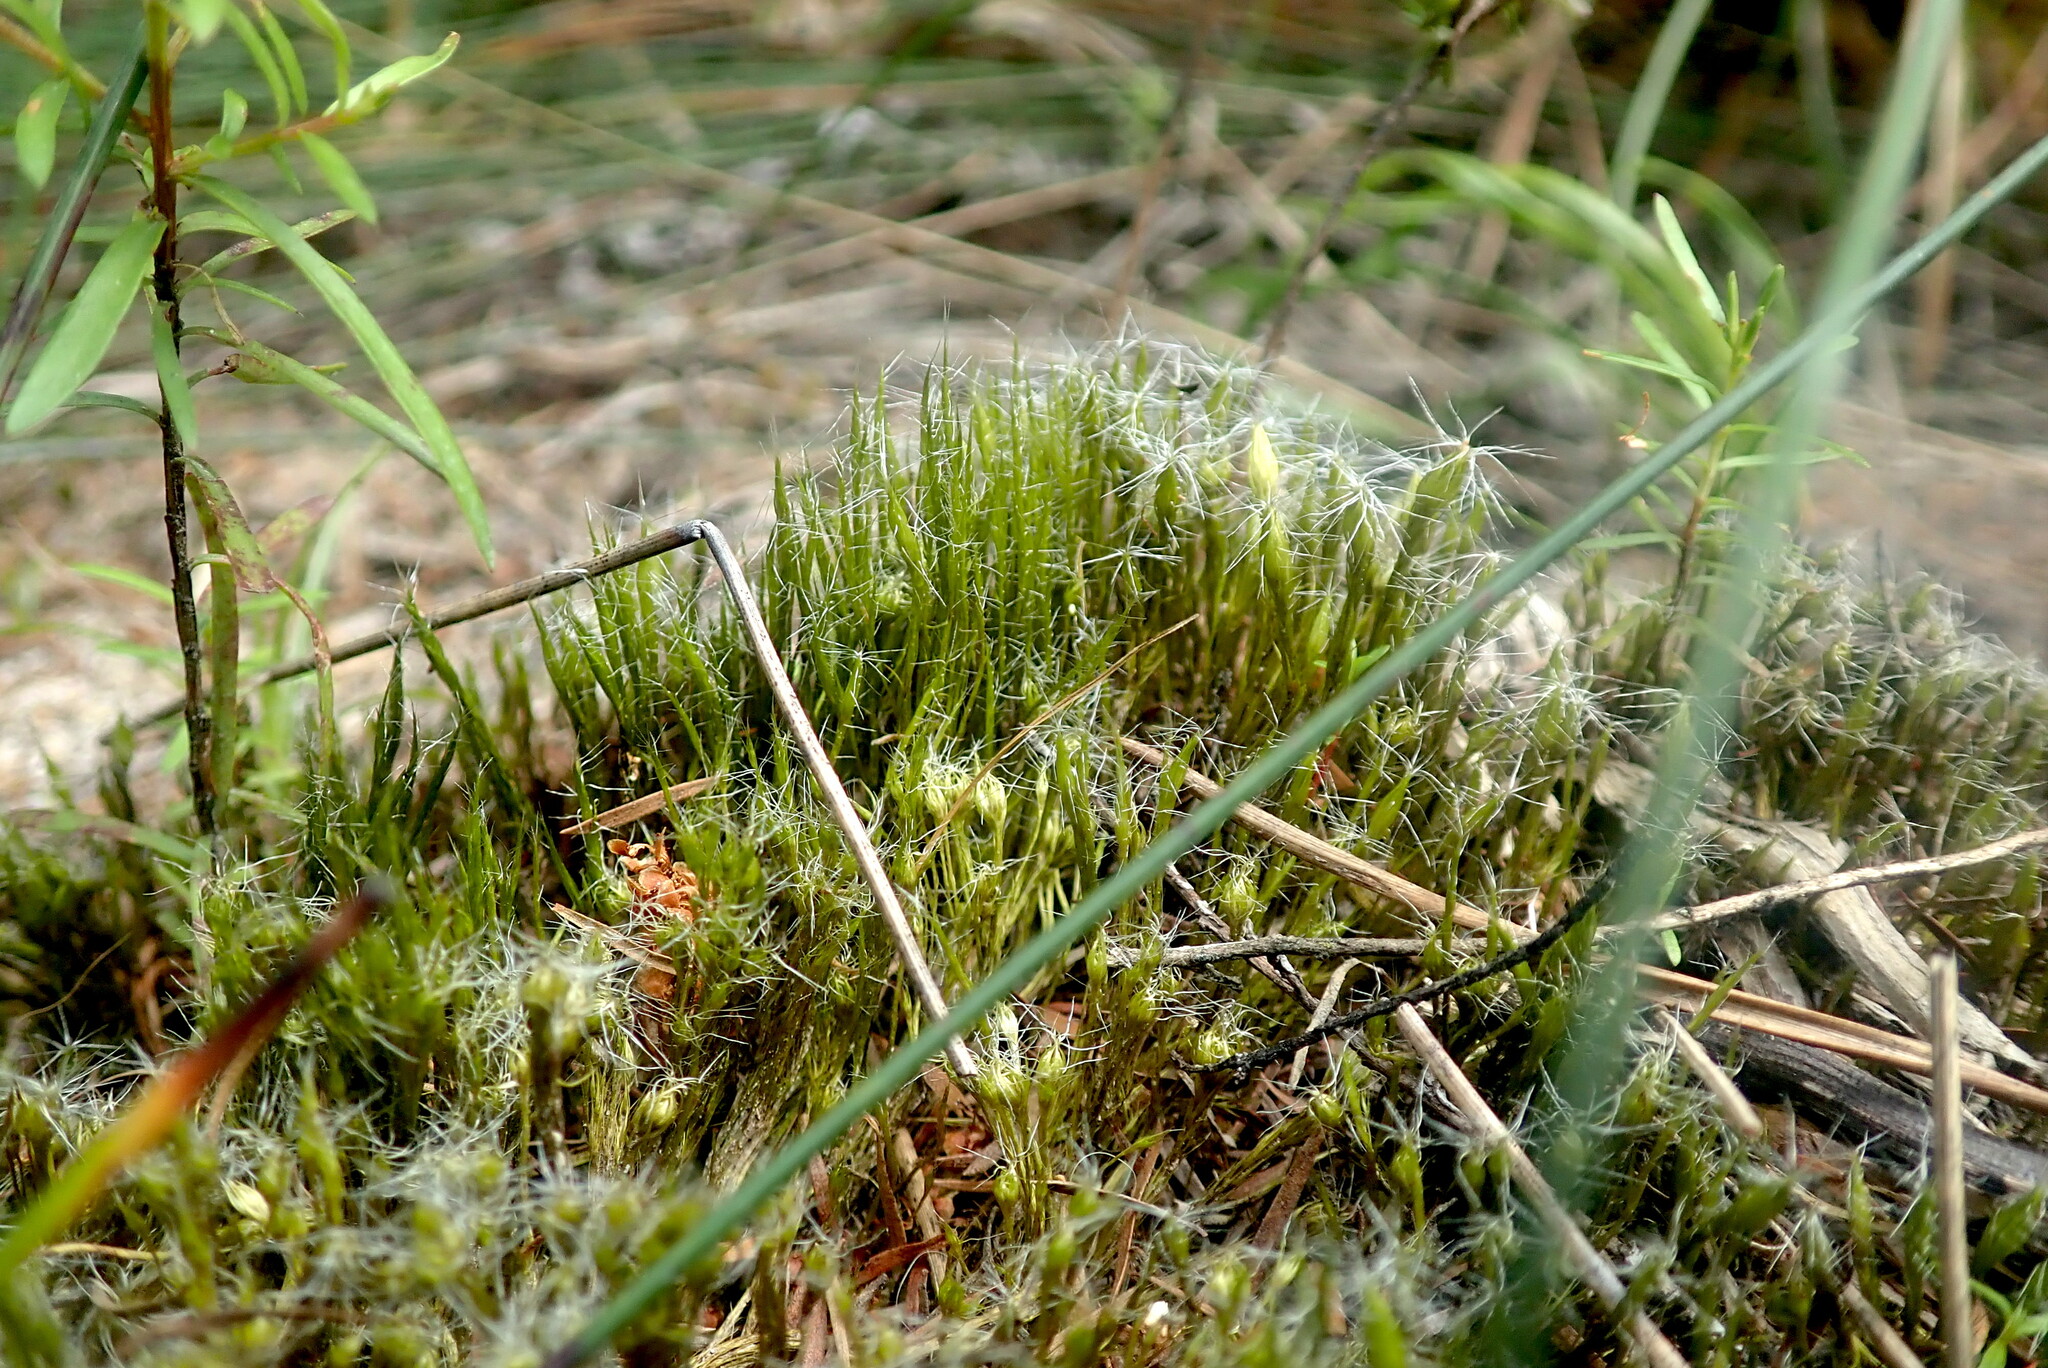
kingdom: Plantae
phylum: Bryophyta
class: Bryopsida
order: Dicranales
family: Leucobryaceae
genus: Campylopus
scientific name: Campylopus introflexus
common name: Heath star moss
